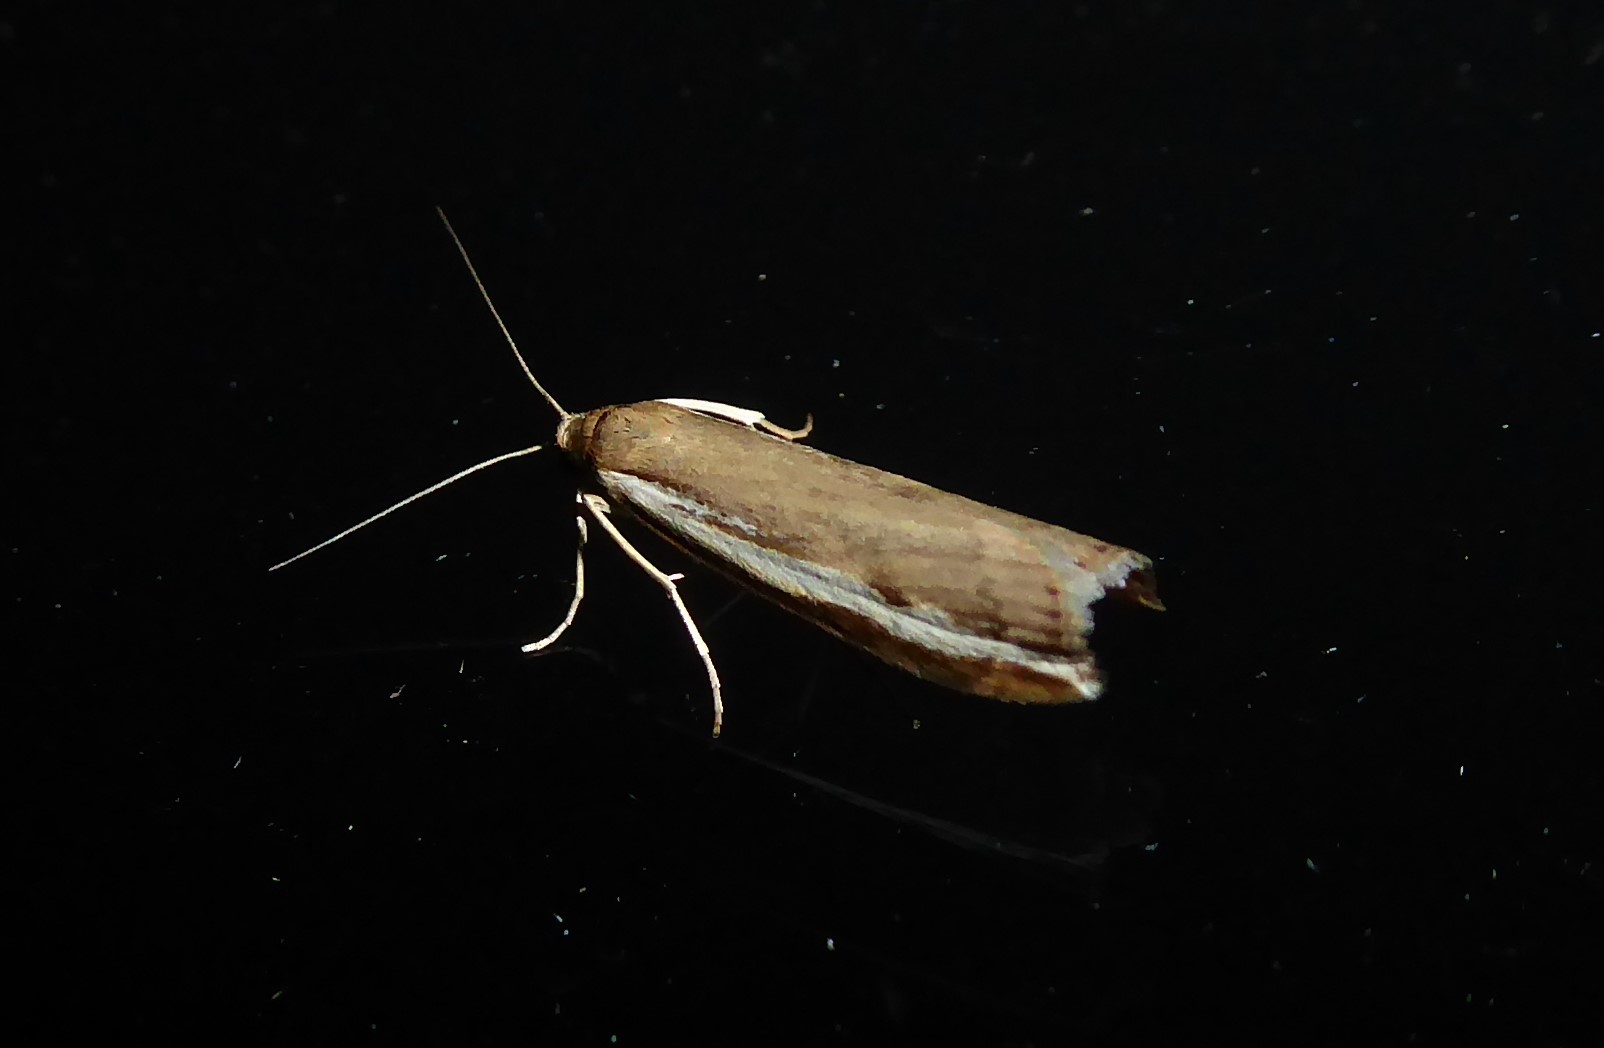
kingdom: Animalia
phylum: Arthropoda
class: Insecta
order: Lepidoptera
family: Crambidae
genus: Orocrambus
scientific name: Orocrambus flexuosellus
